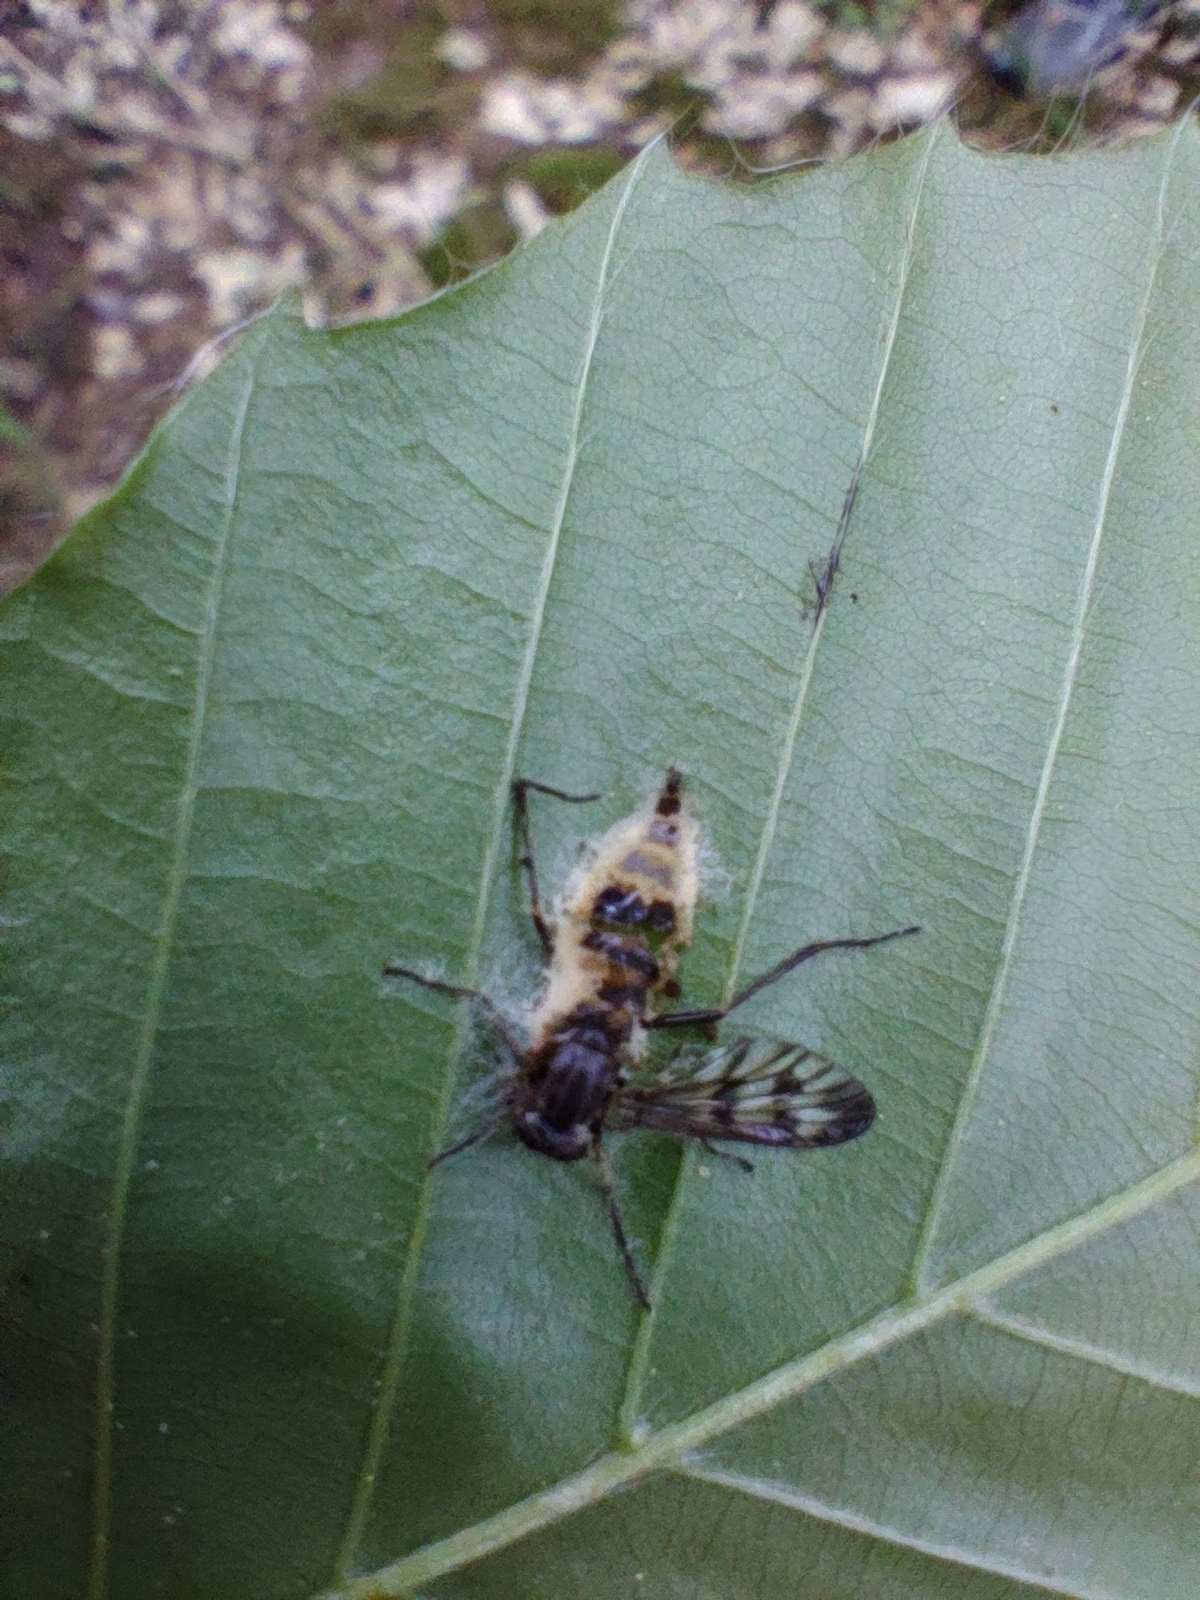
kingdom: Fungi
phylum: Entomophthoromycota
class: Entomophthoromycetes
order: Entomophthorales
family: Entomophthoraceae
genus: Furia
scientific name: Furia ithacensis
